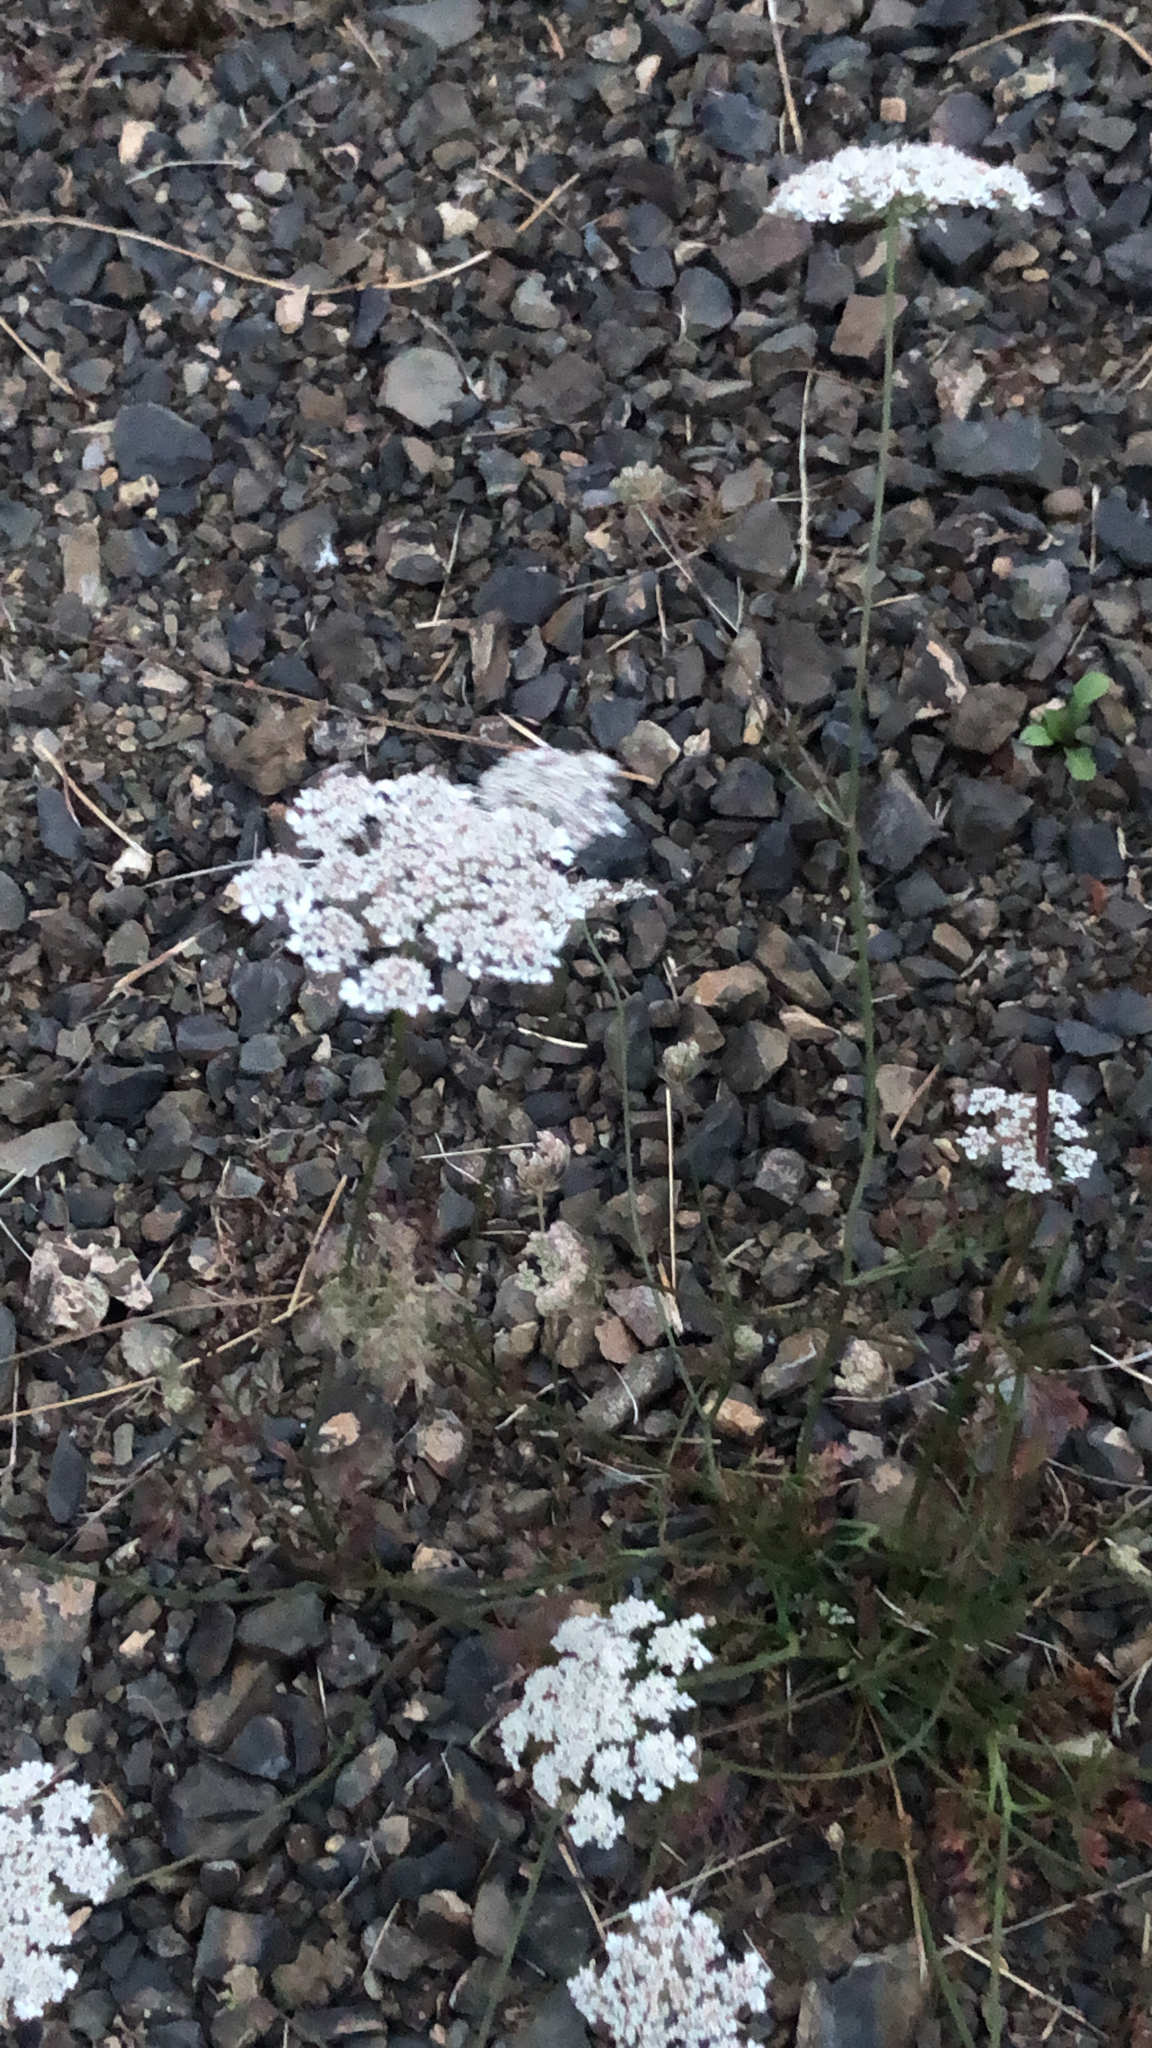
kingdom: Plantae
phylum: Tracheophyta
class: Magnoliopsida
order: Apiales
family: Apiaceae
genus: Daucus
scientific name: Daucus carota
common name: Wild carrot
